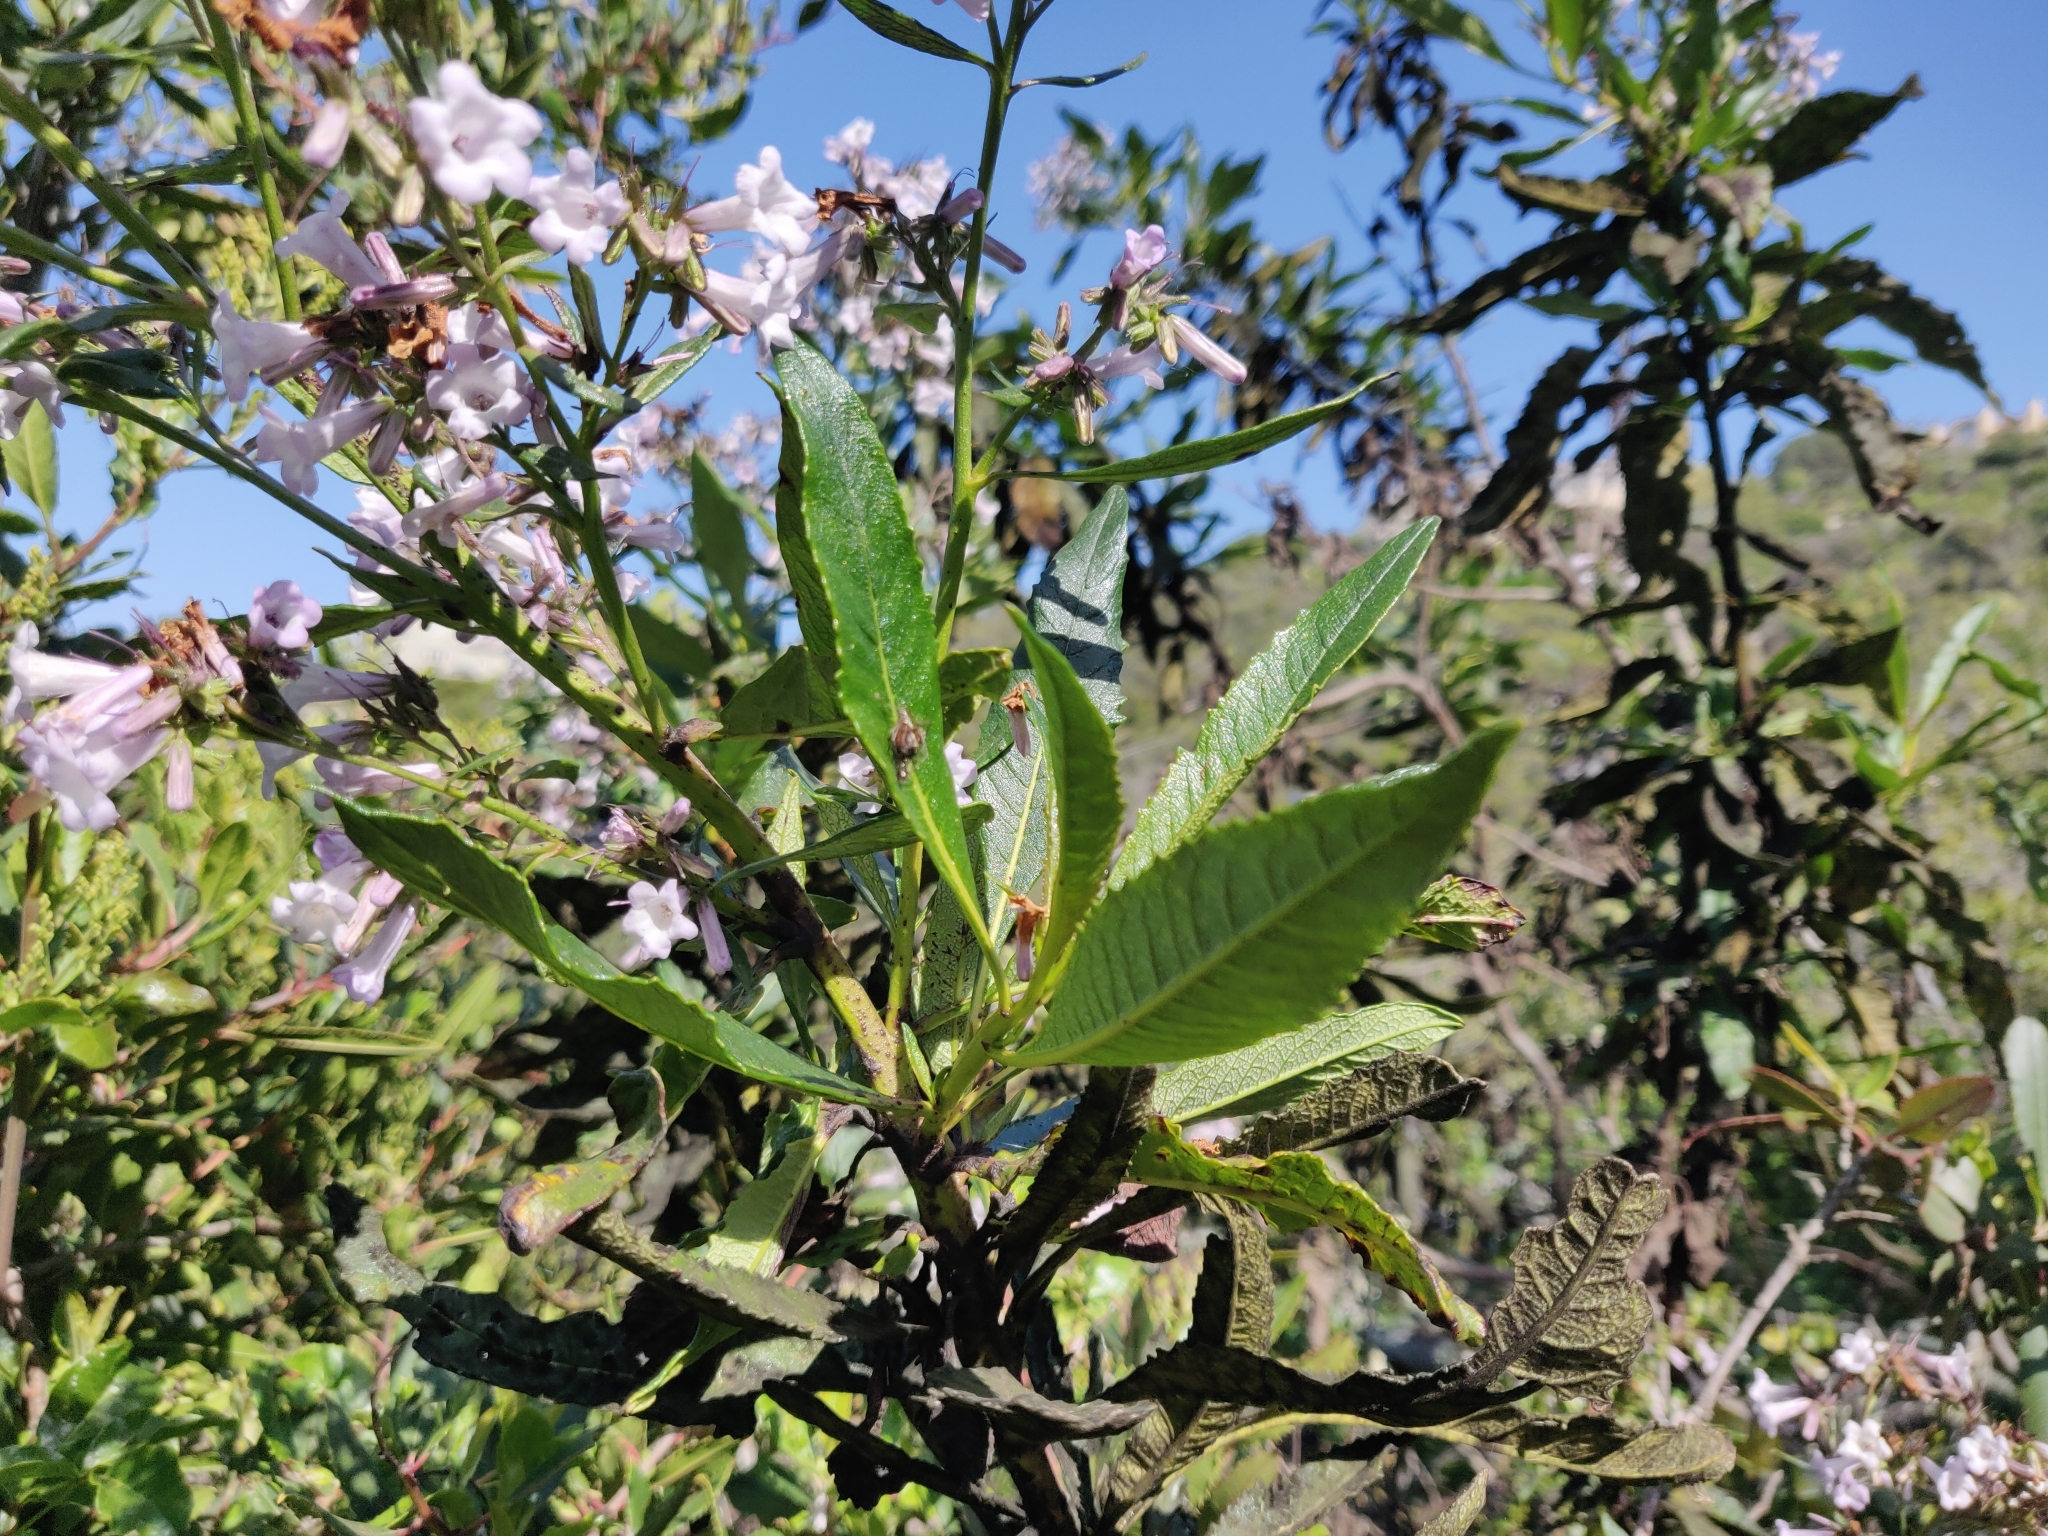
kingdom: Plantae
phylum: Tracheophyta
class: Magnoliopsida
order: Boraginales
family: Namaceae
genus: Eriodictyon
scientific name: Eriodictyon californicum
